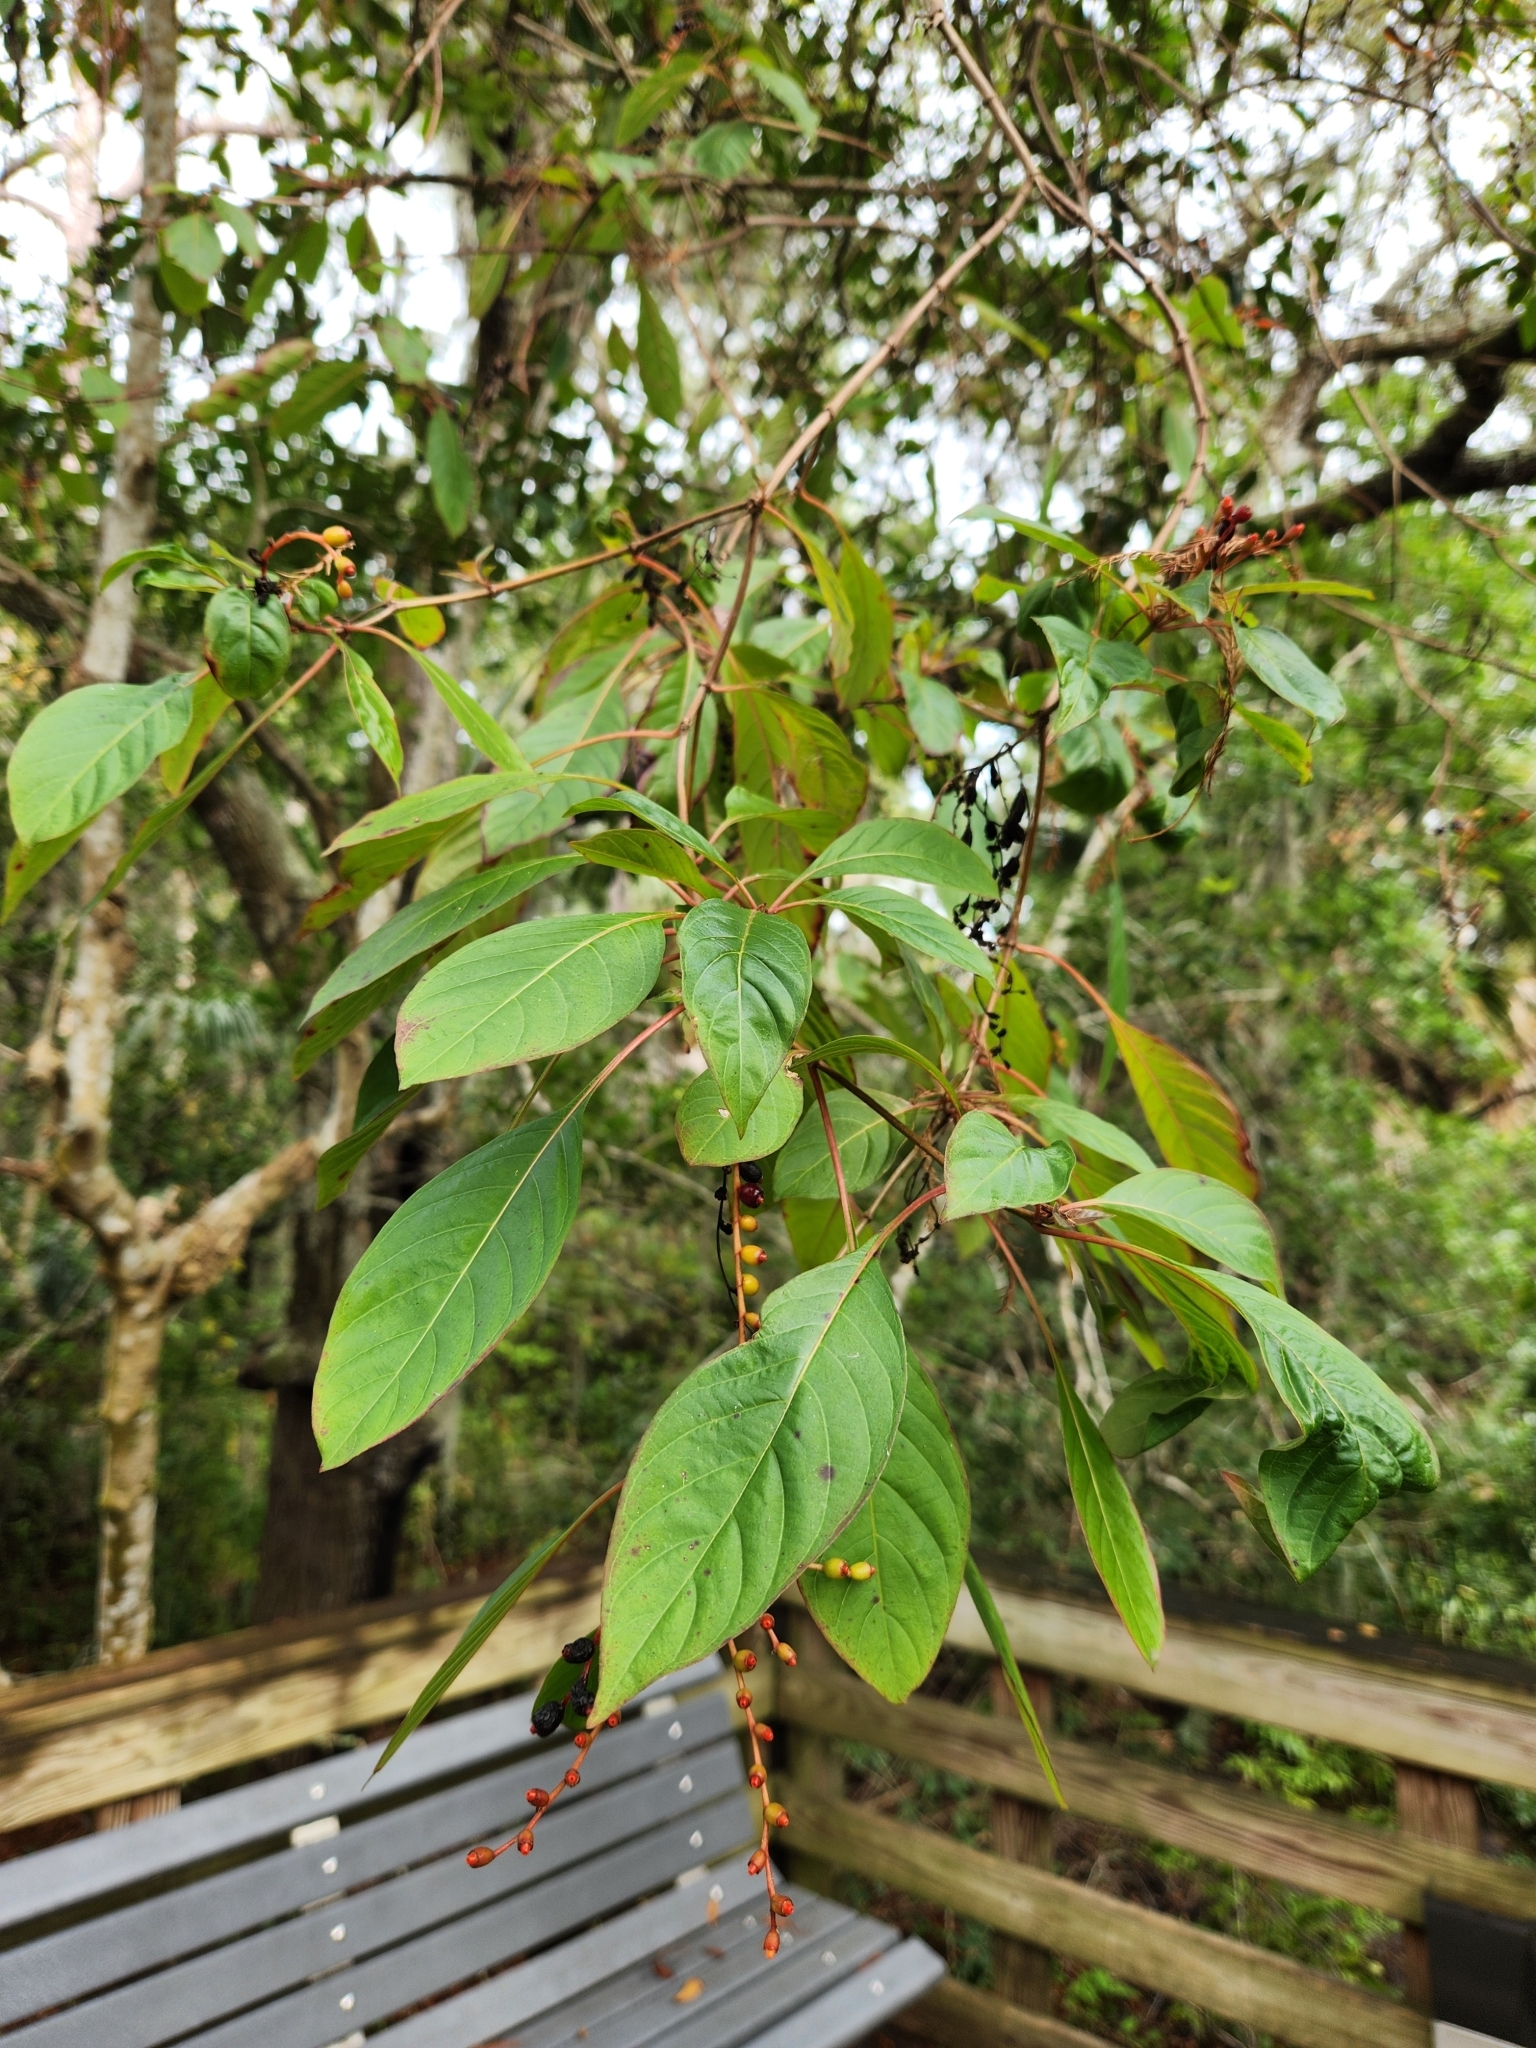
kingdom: Plantae
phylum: Tracheophyta
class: Magnoliopsida
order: Gentianales
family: Rubiaceae
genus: Hamelia
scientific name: Hamelia patens
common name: Redhead
